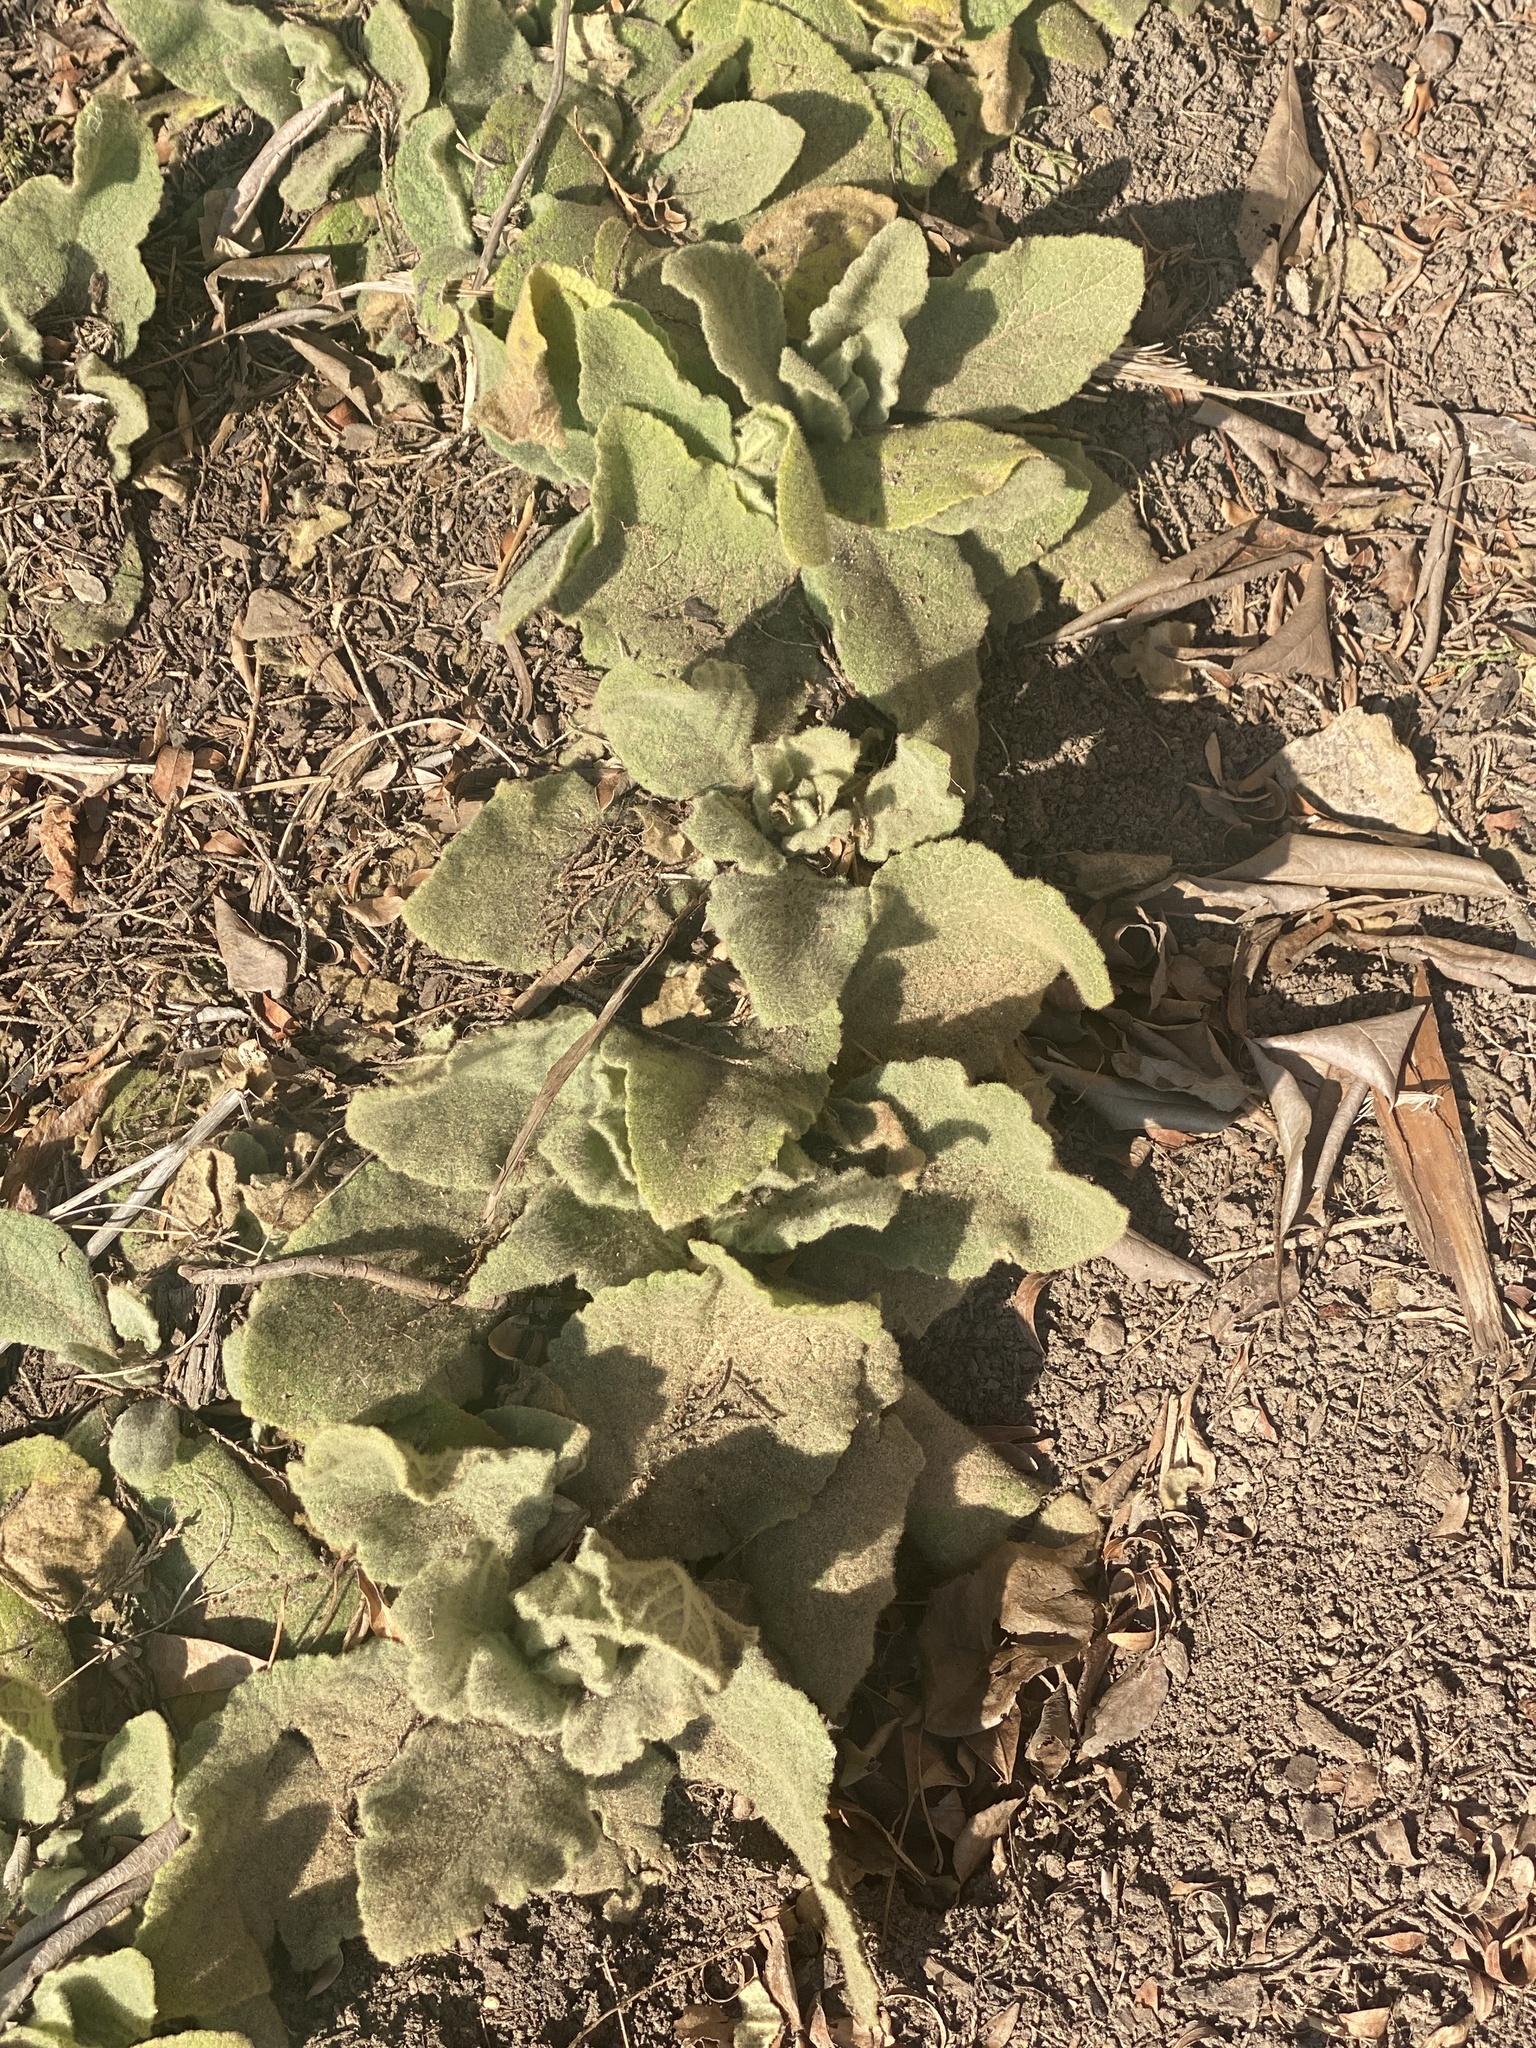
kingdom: Plantae
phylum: Tracheophyta
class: Magnoliopsida
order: Lamiales
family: Scrophulariaceae
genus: Verbascum
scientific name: Verbascum thapsus
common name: Common mullein
